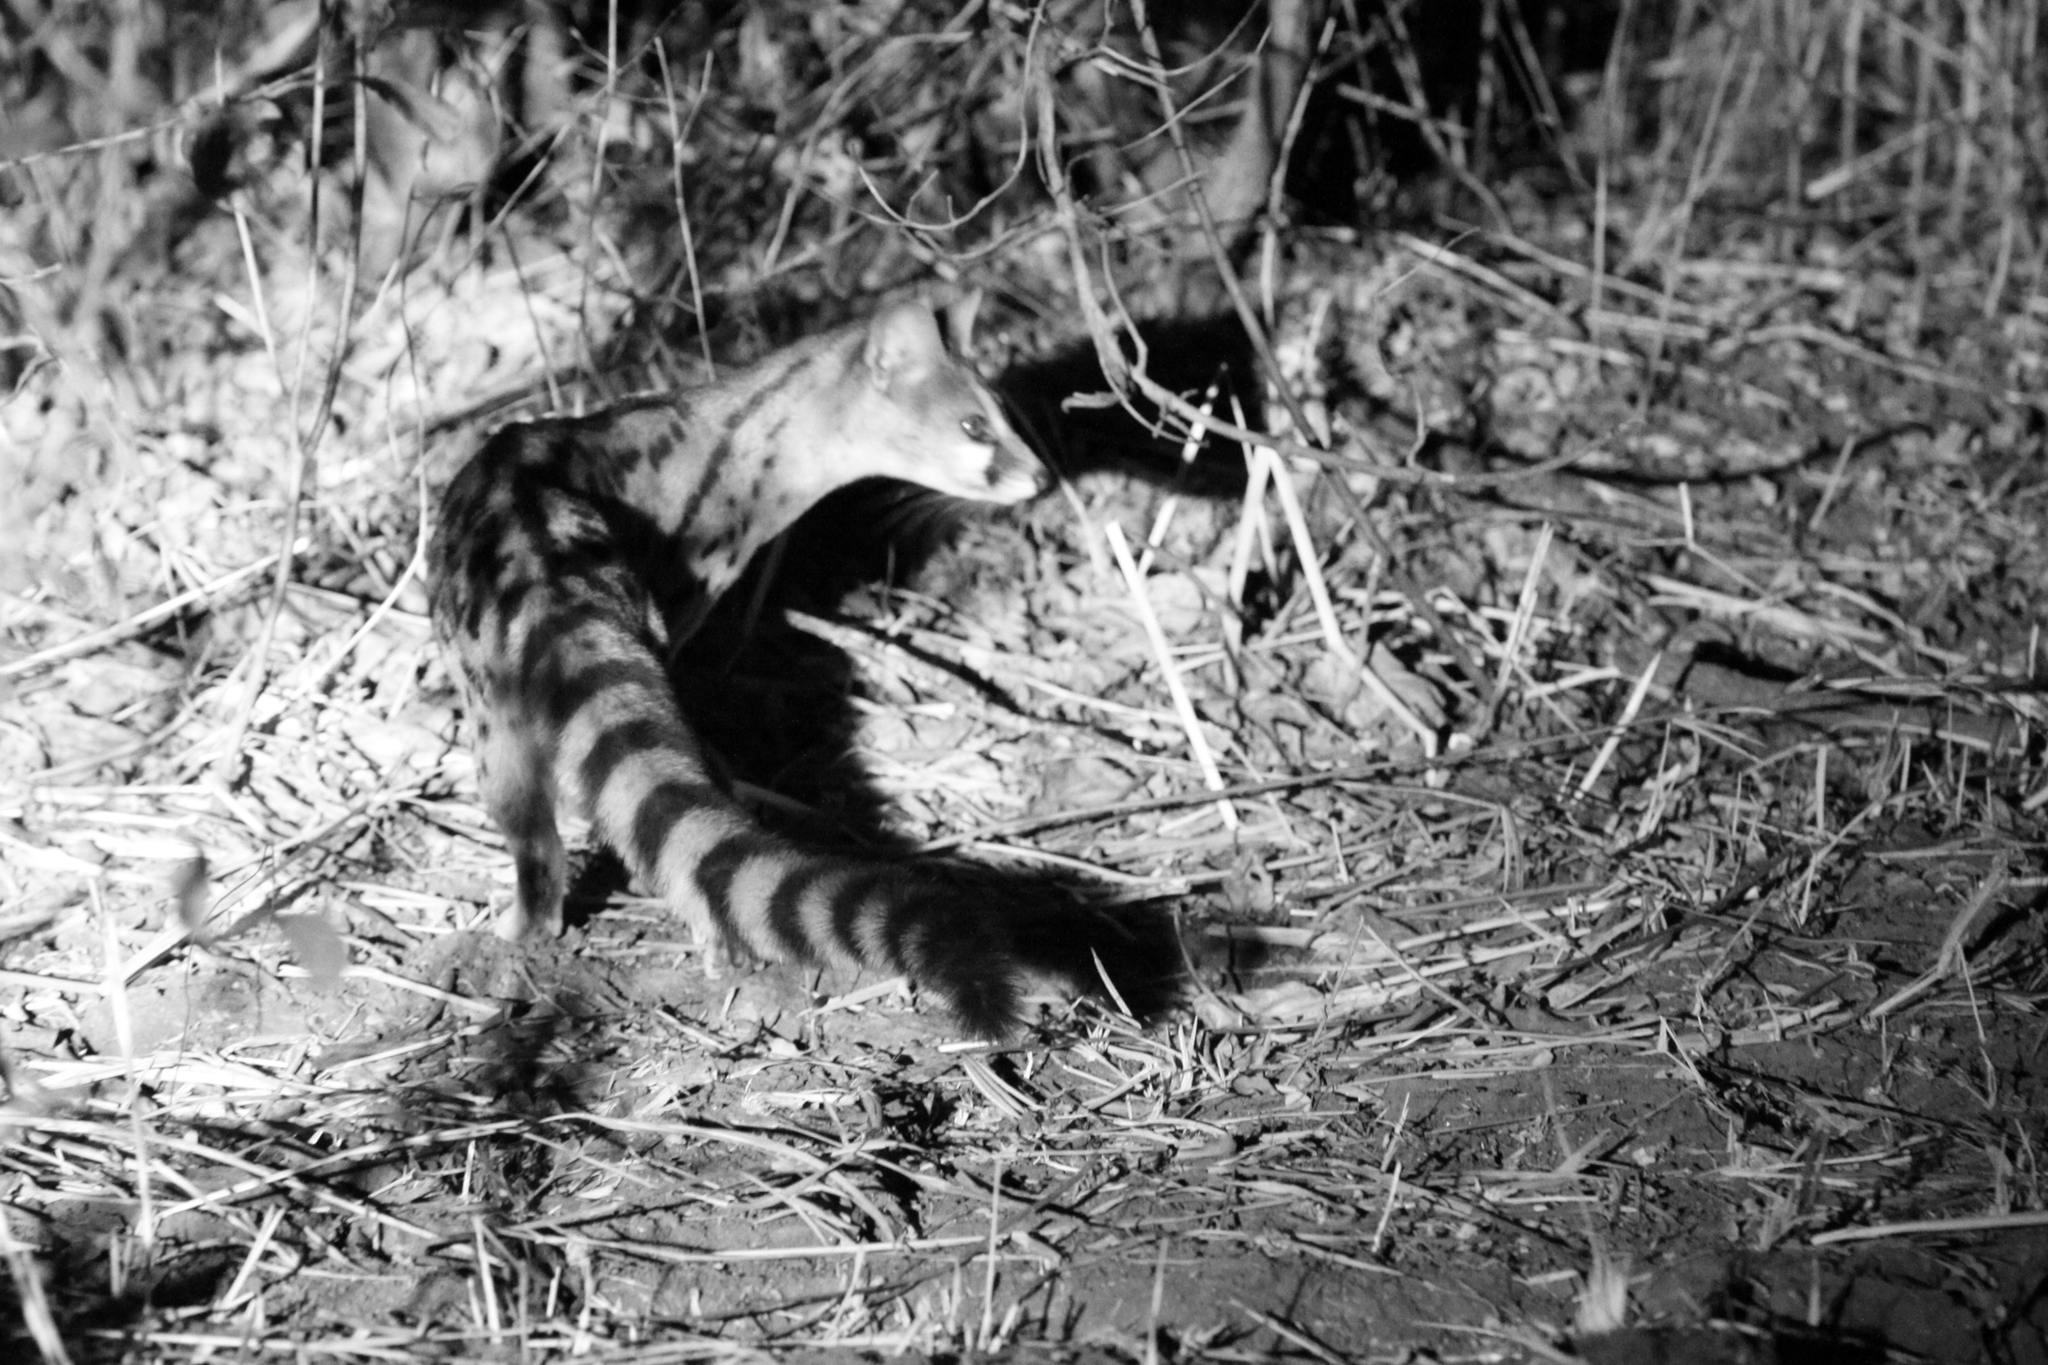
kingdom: Animalia
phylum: Chordata
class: Mammalia
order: Carnivora
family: Viverridae
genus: Genetta
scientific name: Genetta maculata
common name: Rusty-spotted genet
